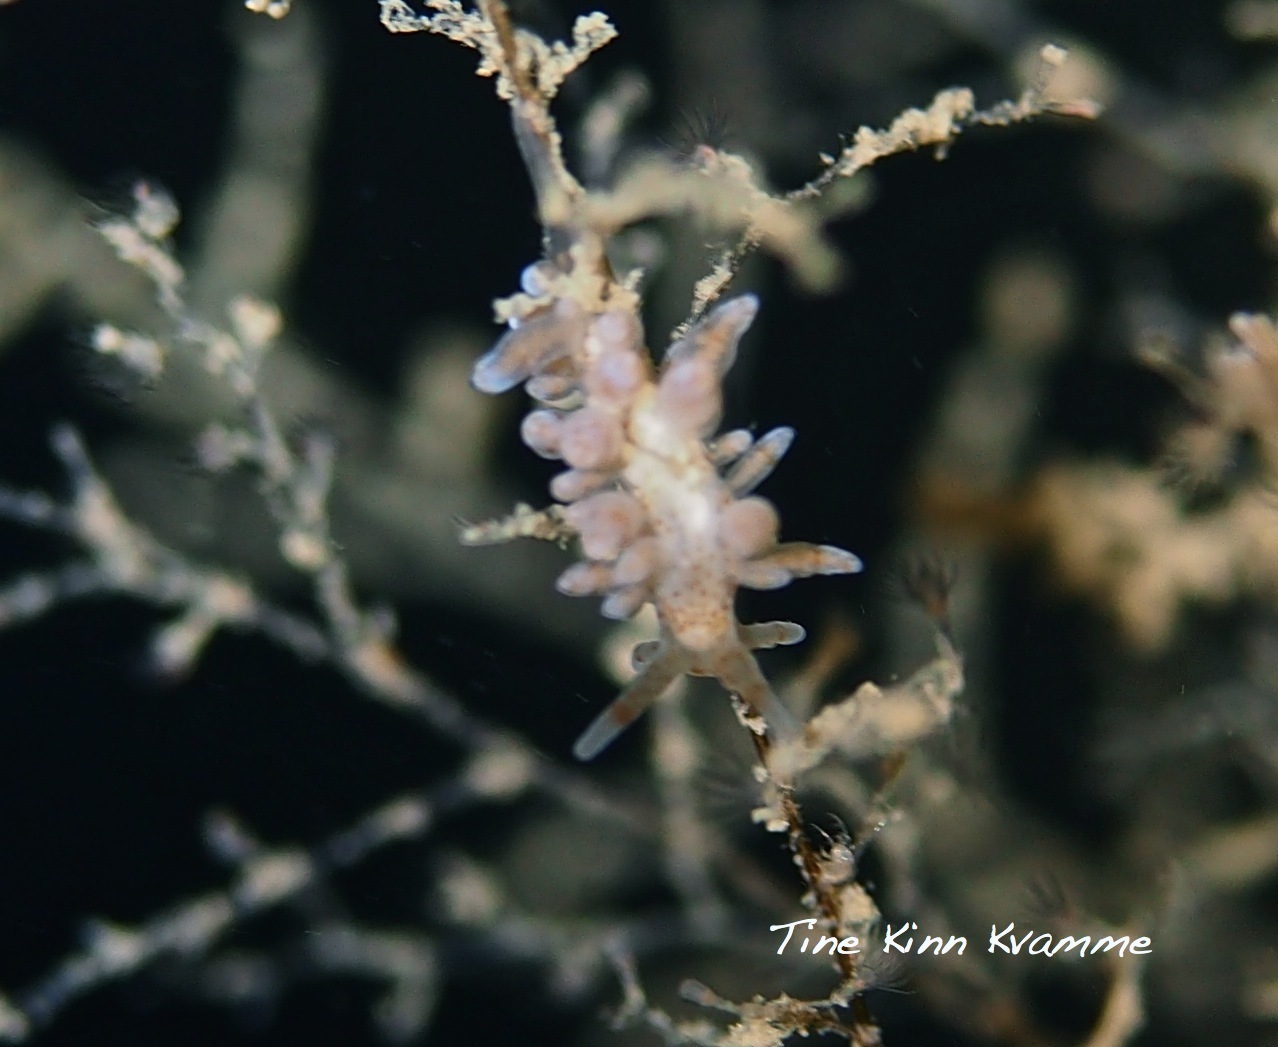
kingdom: Animalia
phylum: Mollusca
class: Gastropoda
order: Nudibranchia
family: Eubranchidae
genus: Eubranchus
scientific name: Eubranchus rupium
